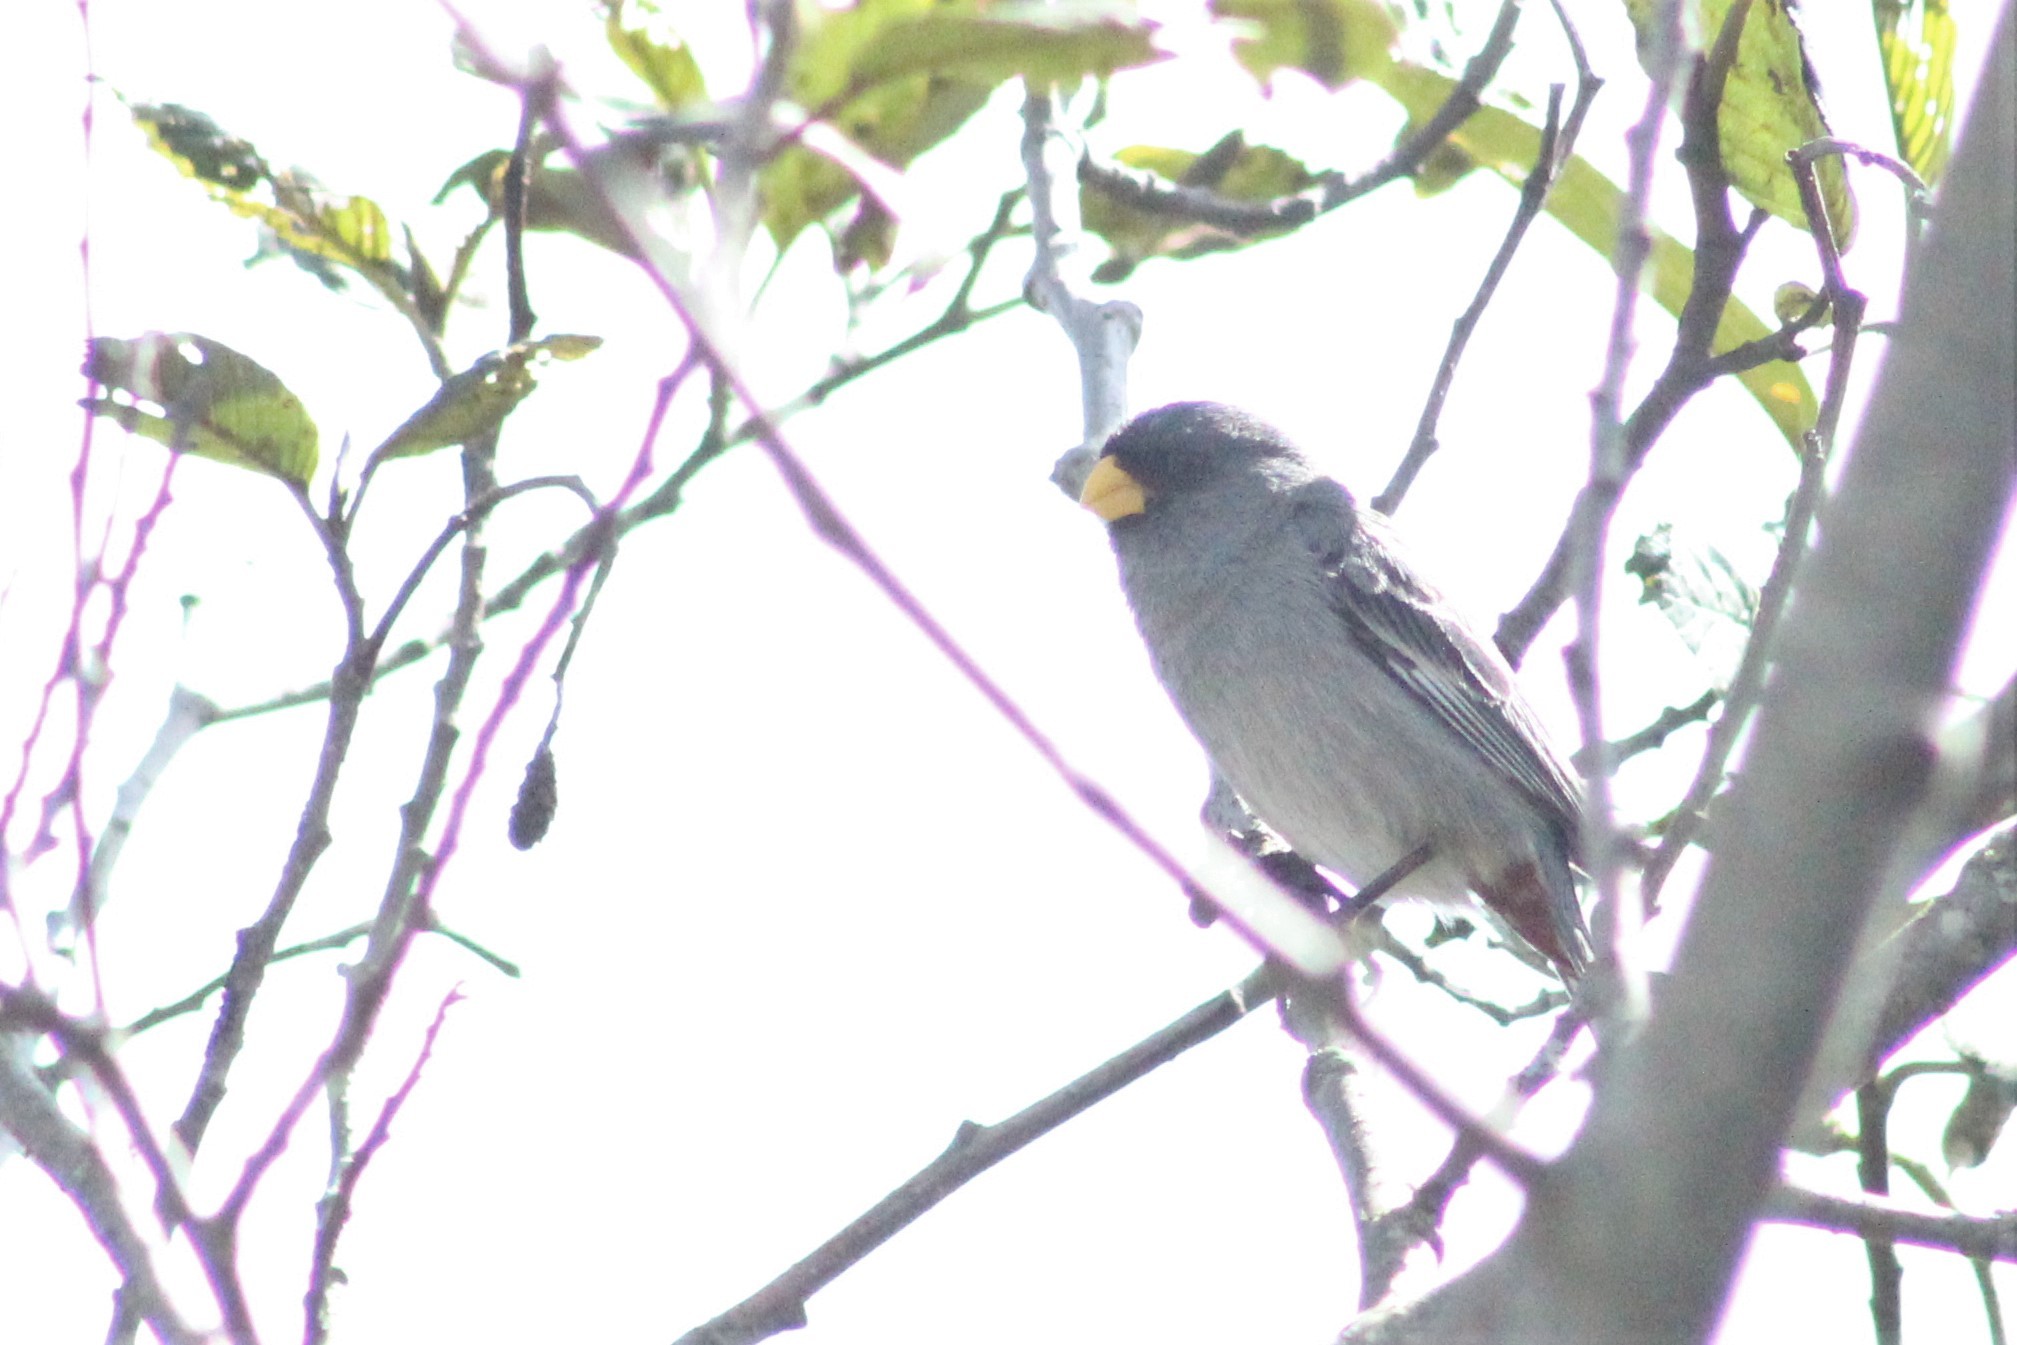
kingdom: Animalia
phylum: Chordata
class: Aves
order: Passeriformes
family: Thraupidae
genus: Catamenia
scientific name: Catamenia analis
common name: Band-tailed seedeater
